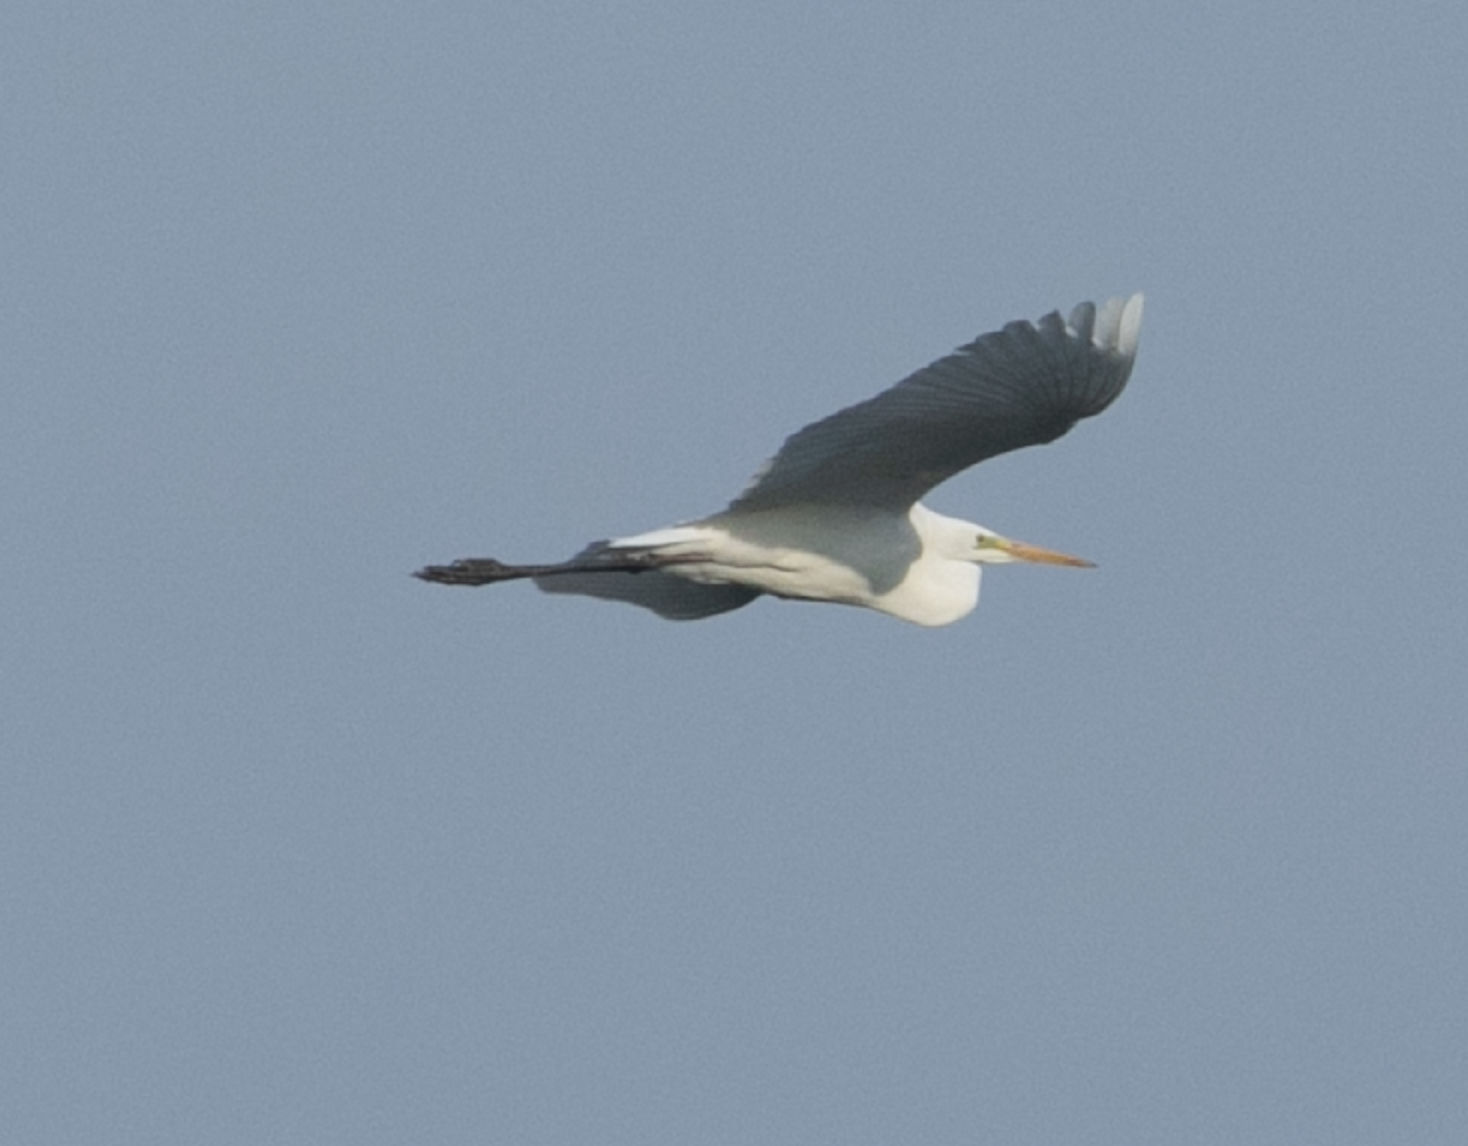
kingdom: Animalia
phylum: Chordata
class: Aves
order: Pelecaniformes
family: Ardeidae
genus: Ardea
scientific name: Ardea alba
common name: Great egret
